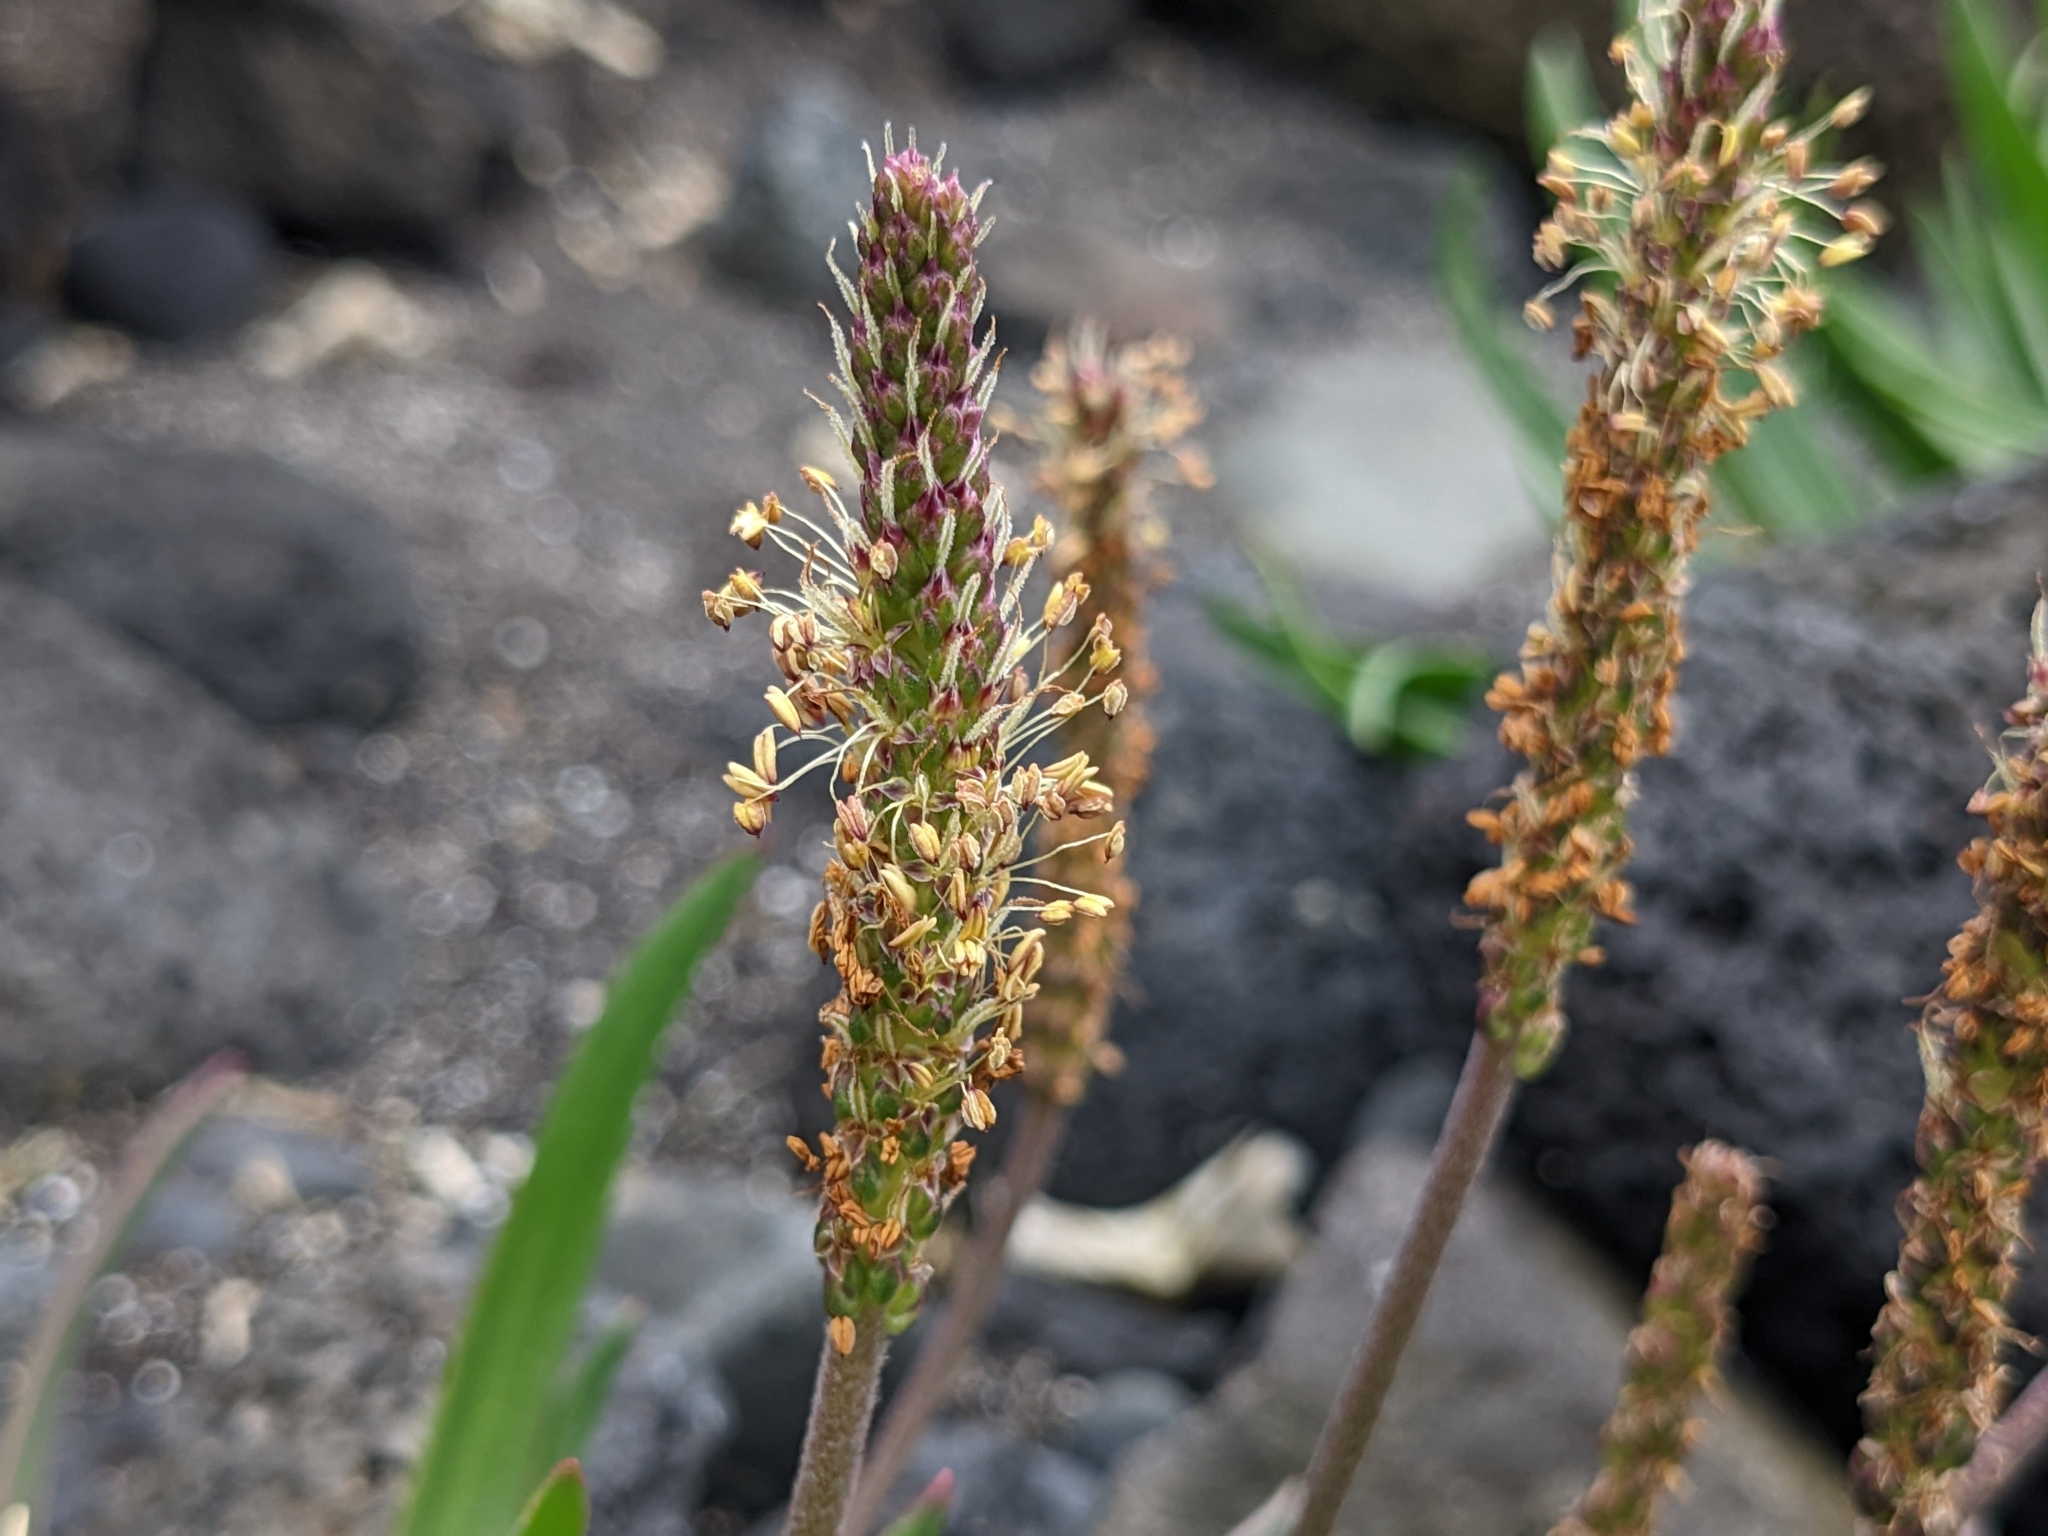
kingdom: Plantae
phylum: Tracheophyta
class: Magnoliopsida
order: Lamiales
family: Plantaginaceae
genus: Plantago
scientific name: Plantago maritima
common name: Sea plantain
